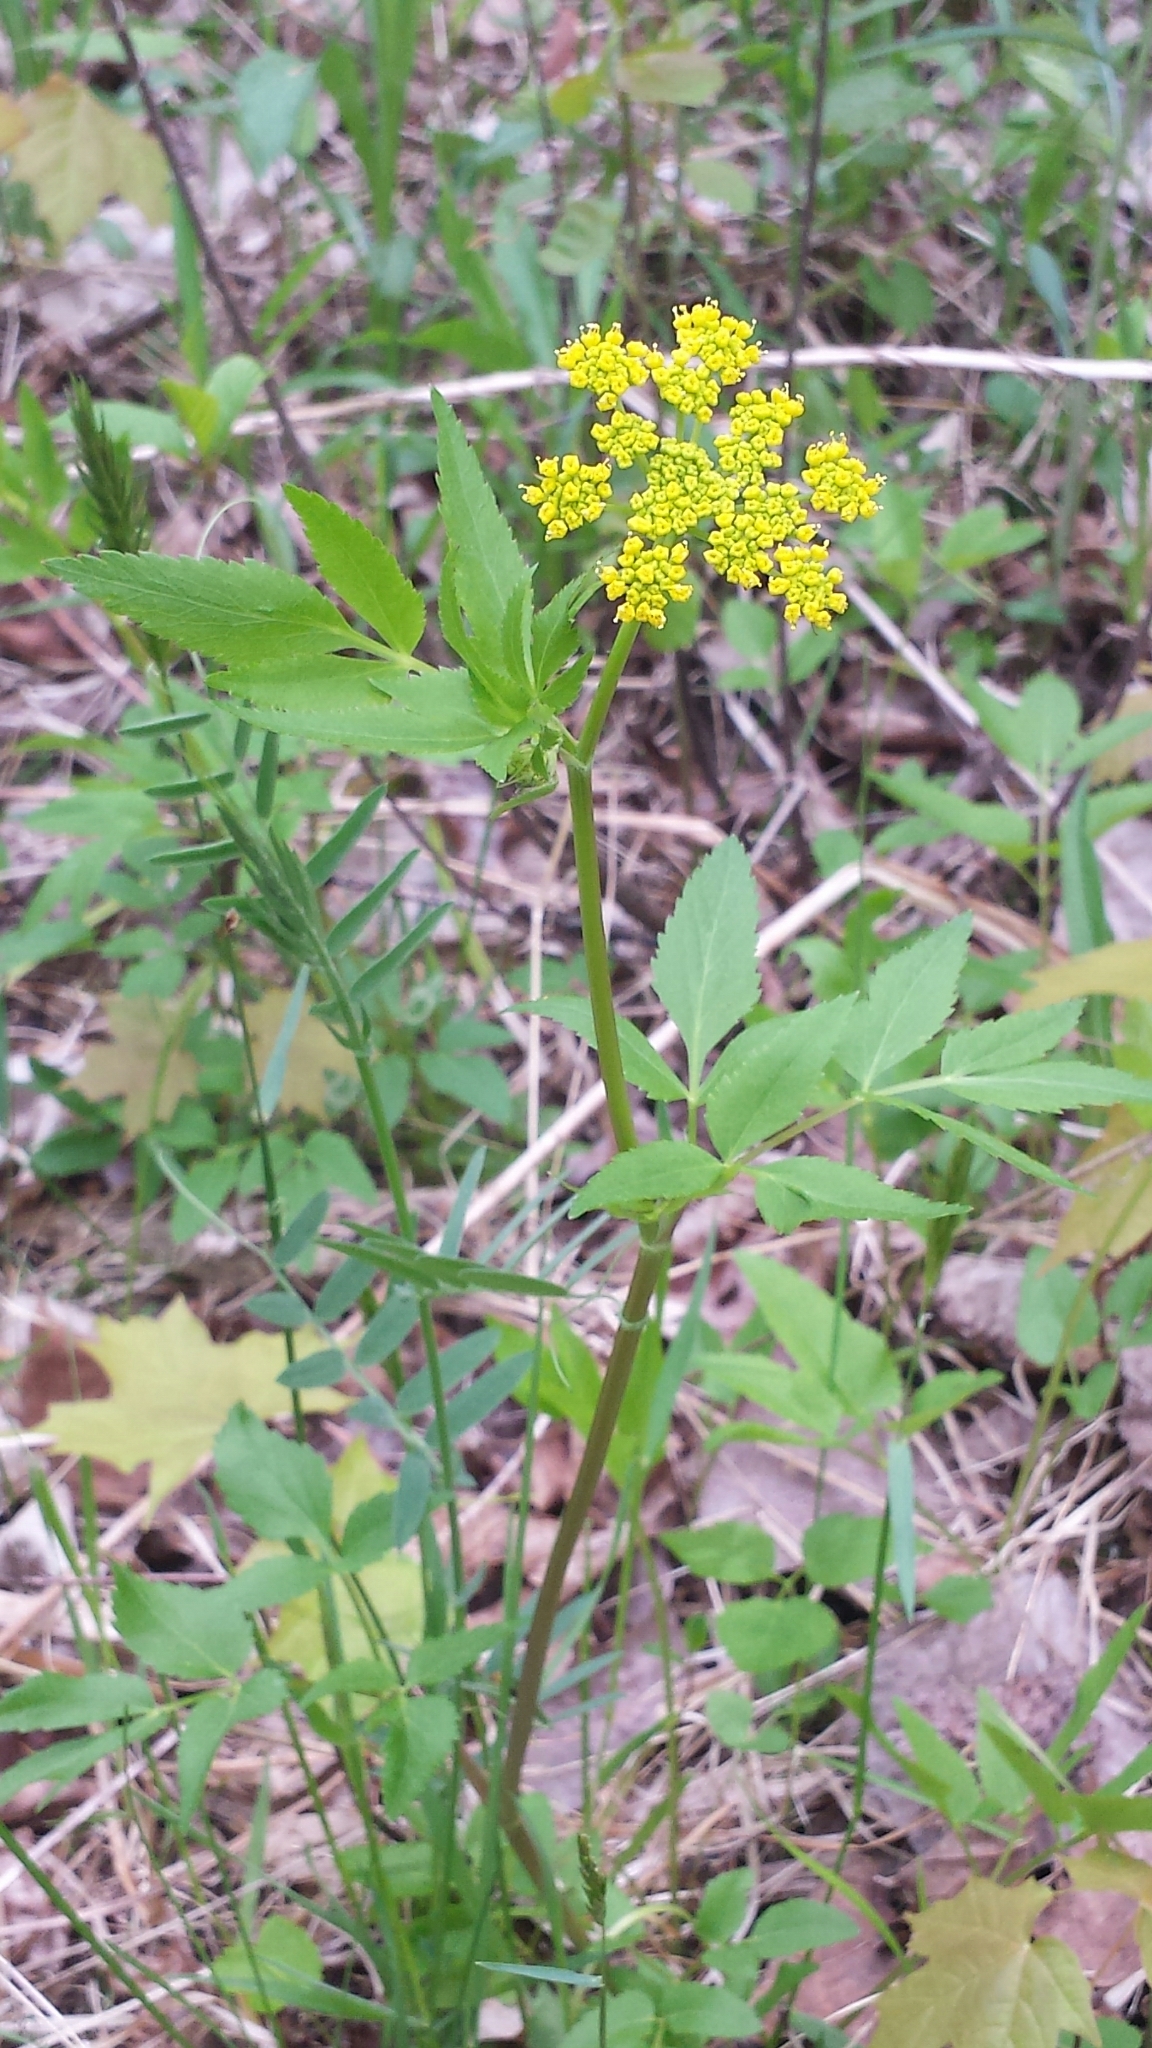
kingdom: Plantae
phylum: Tracheophyta
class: Magnoliopsida
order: Apiales
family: Apiaceae
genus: Zizia
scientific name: Zizia aurea
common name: Golden alexanders
